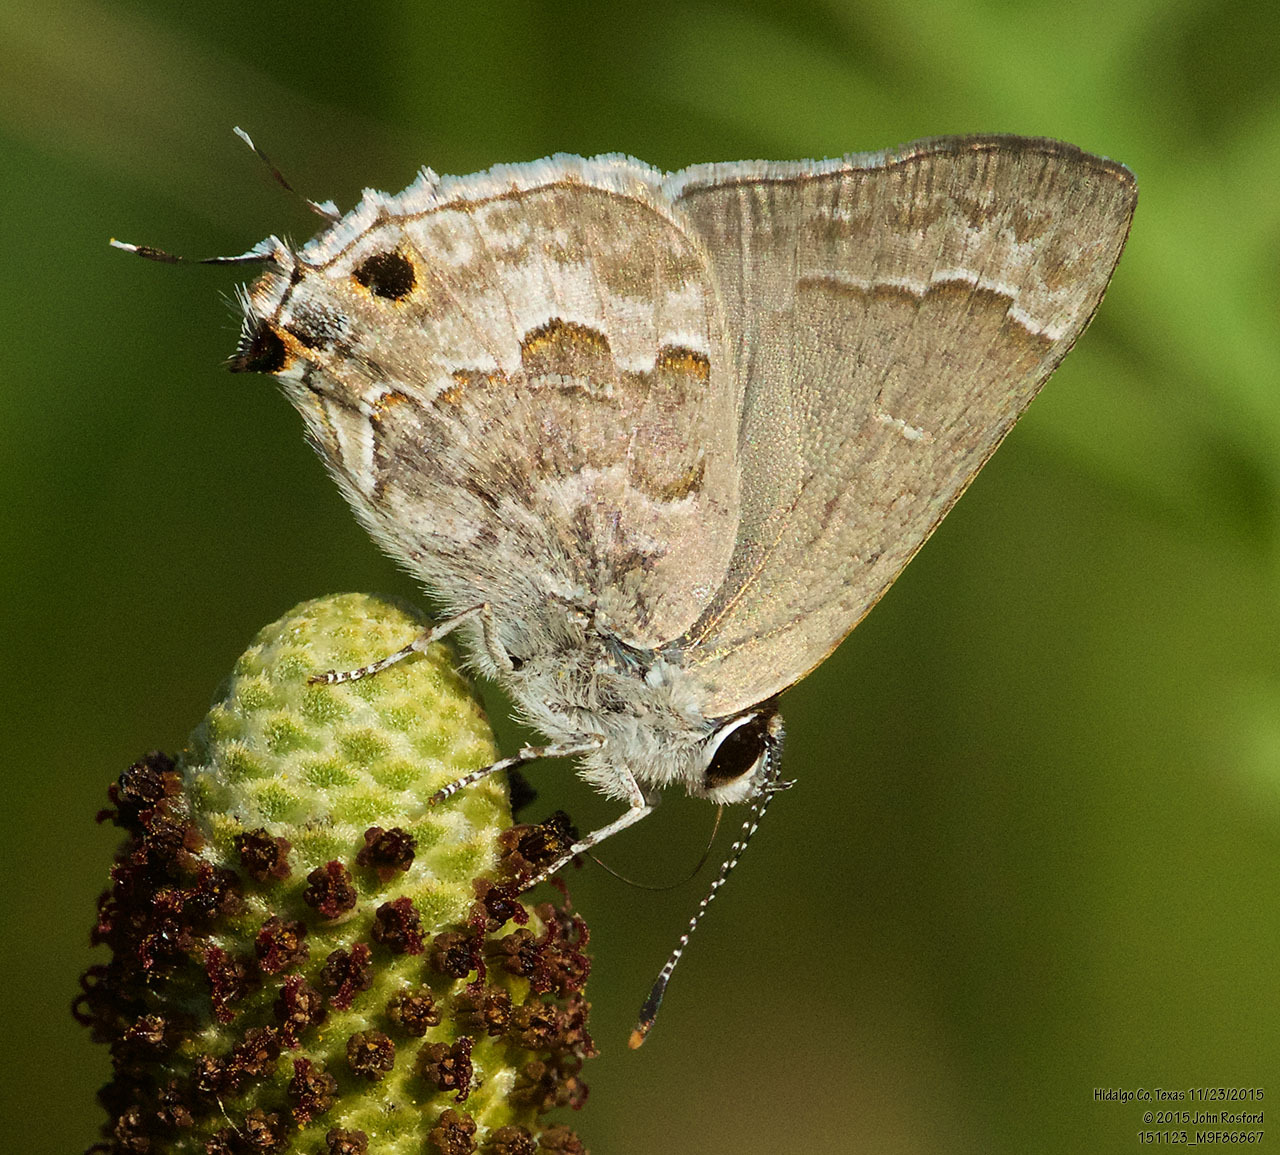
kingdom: Animalia
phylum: Arthropoda
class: Insecta
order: Lepidoptera
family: Lycaenidae
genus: Strymon
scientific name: Strymon alea
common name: Lacey's scrub-hairstreak
